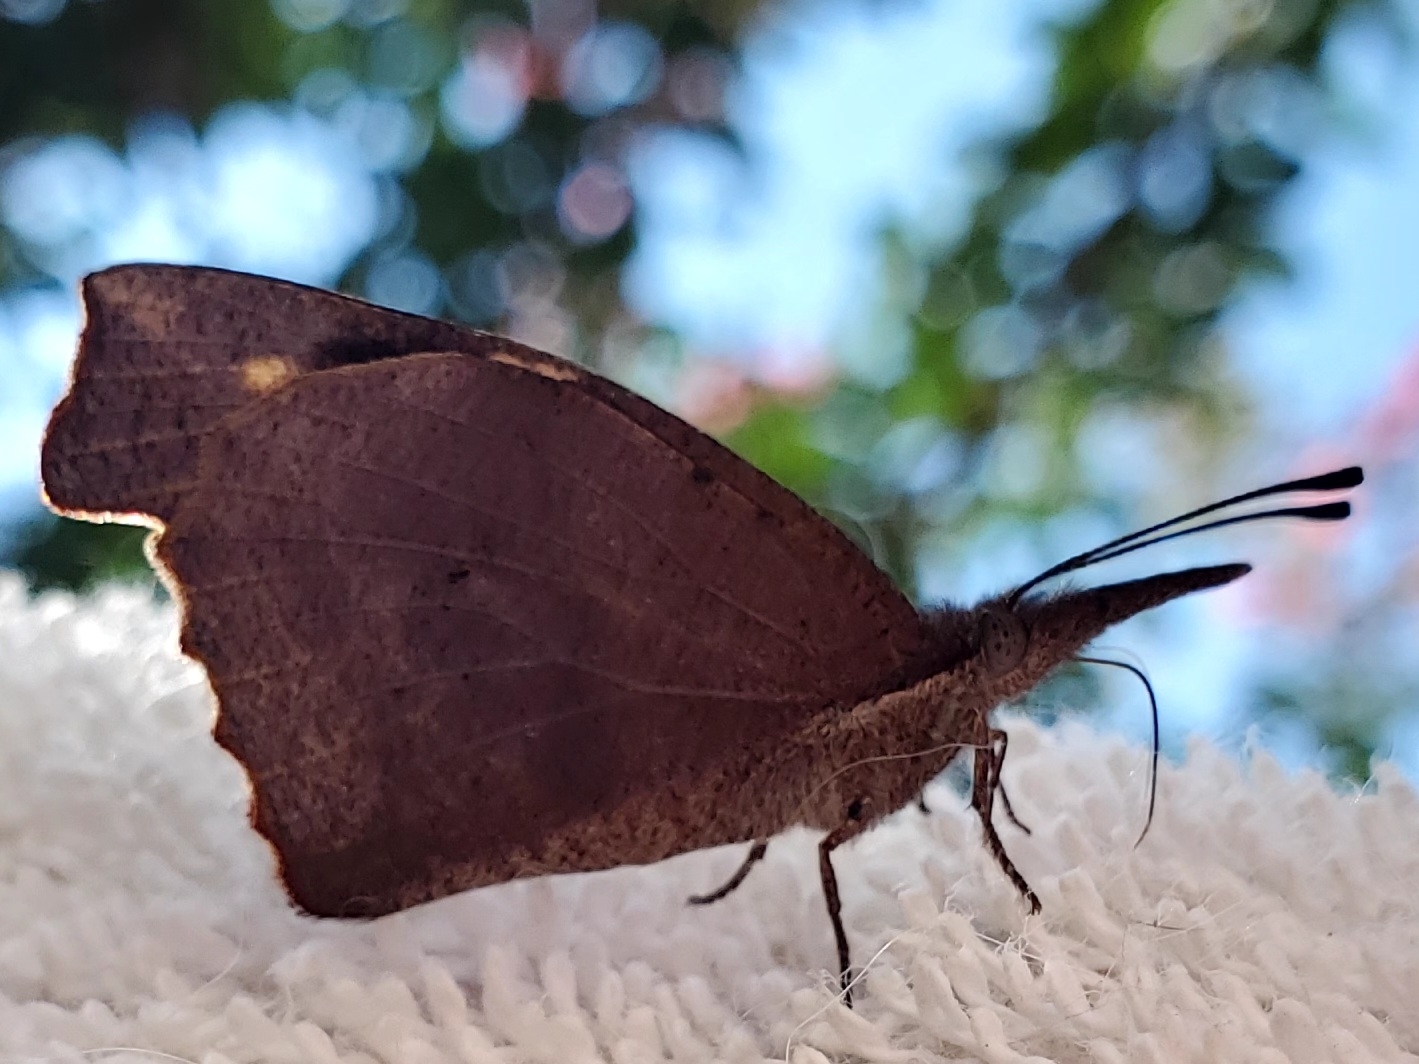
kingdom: Animalia
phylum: Arthropoda
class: Insecta
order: Lepidoptera
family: Nymphalidae
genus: Libytheana
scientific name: Libytheana carinenta
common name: American snout
